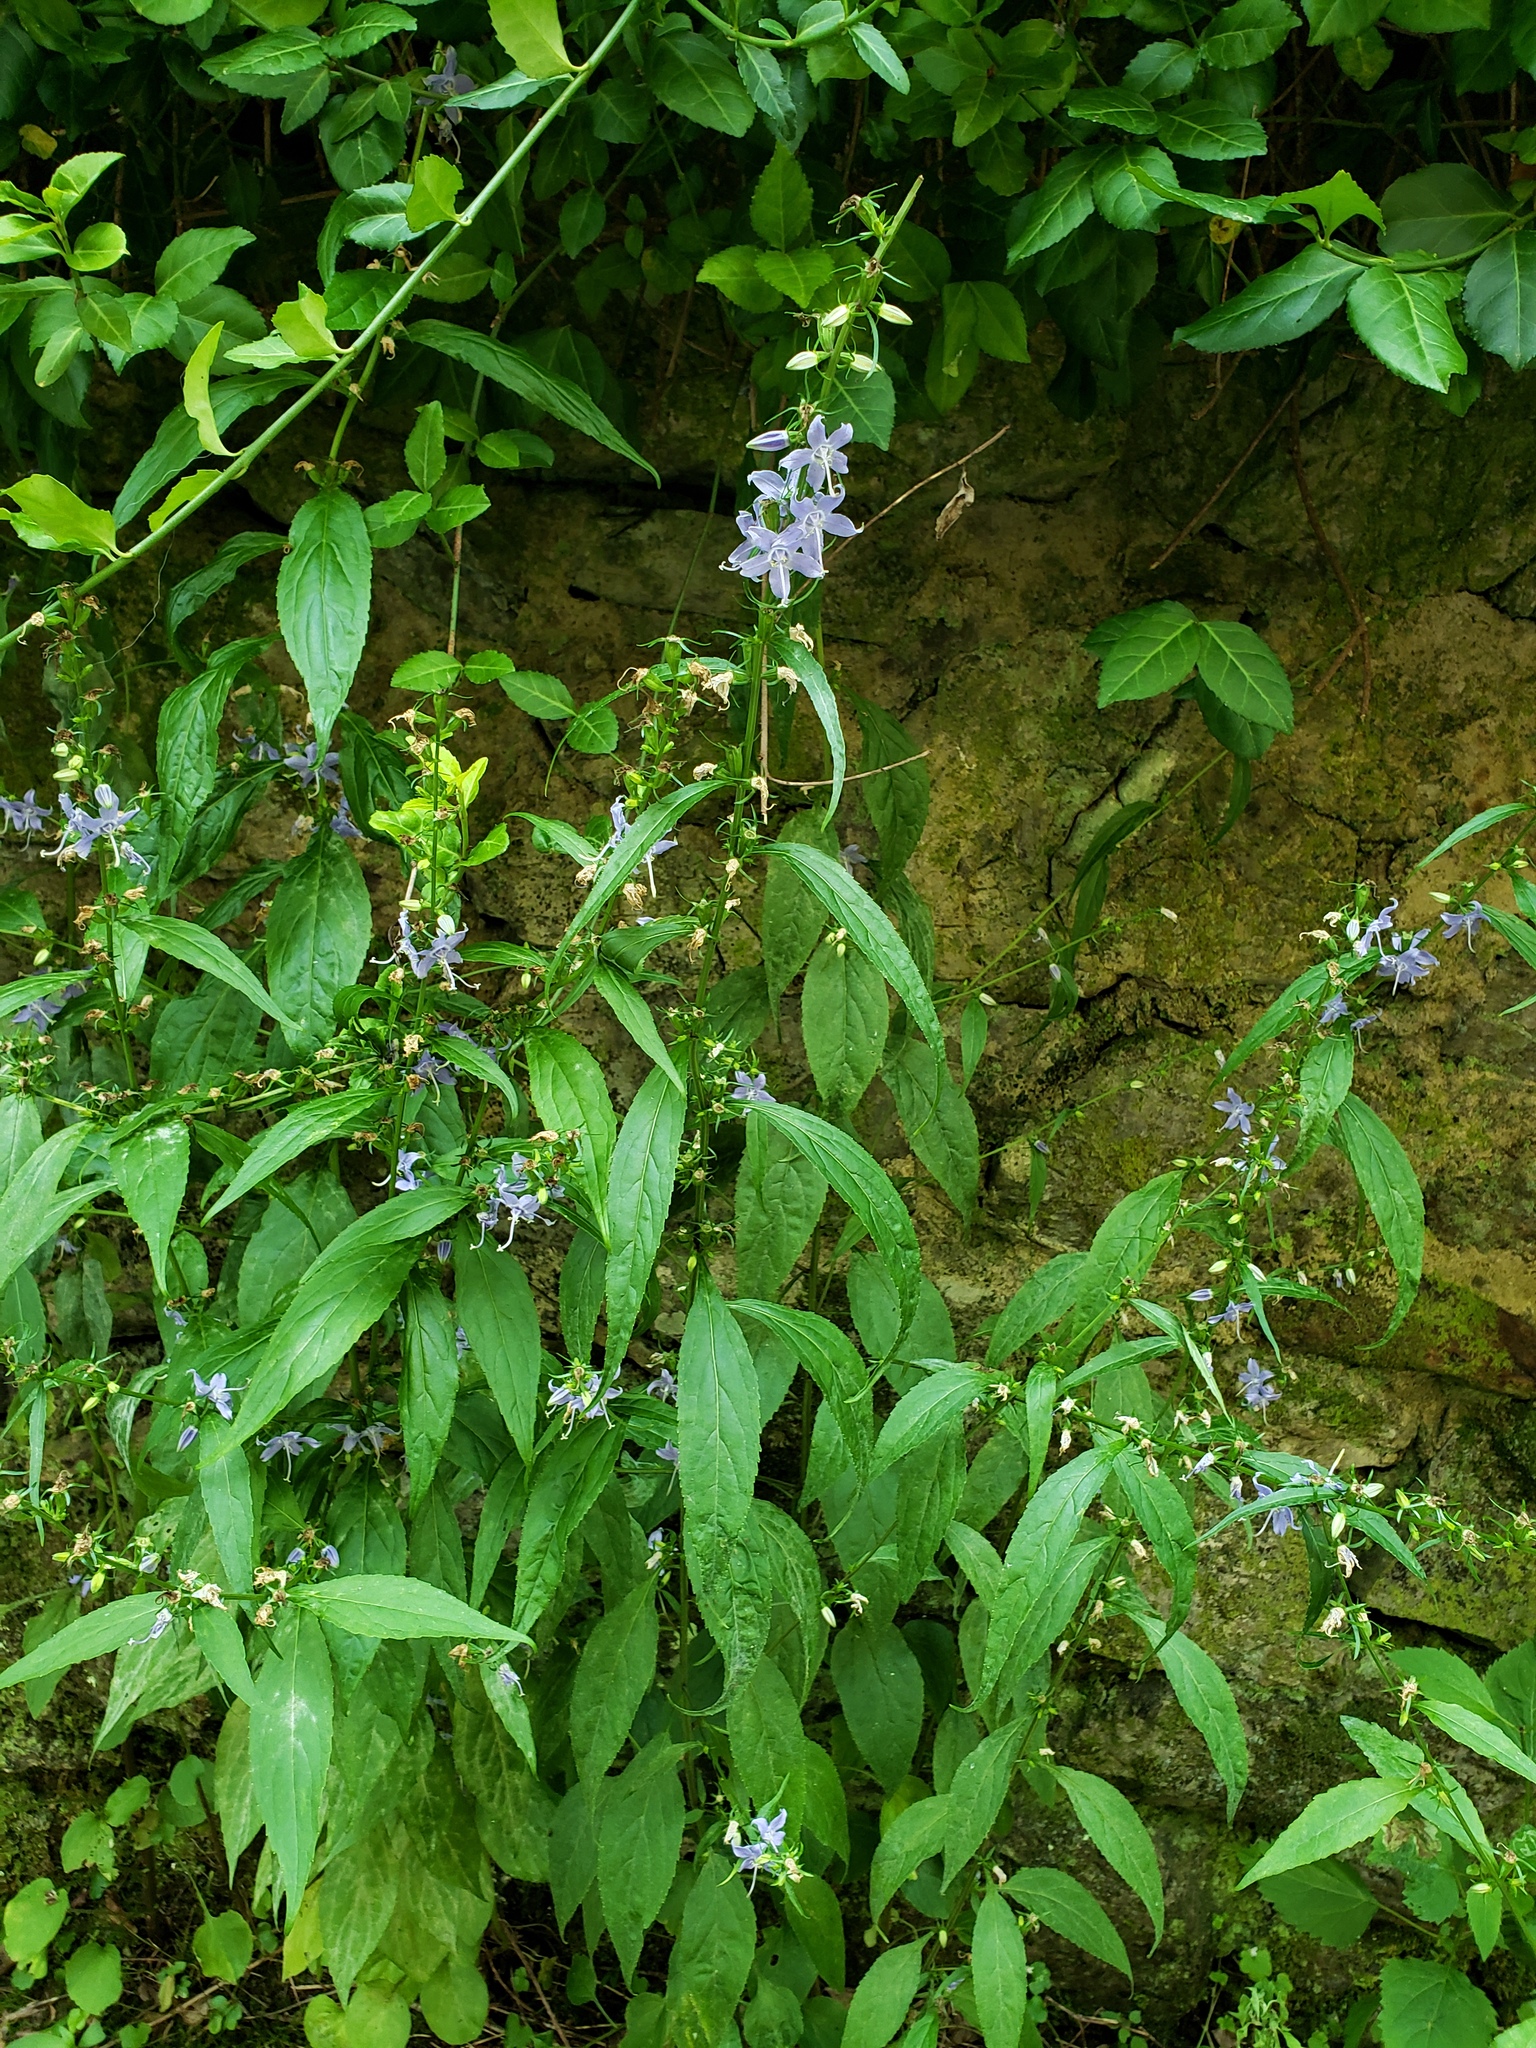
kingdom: Plantae
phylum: Tracheophyta
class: Magnoliopsida
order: Asterales
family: Campanulaceae
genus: Campanulastrum
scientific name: Campanulastrum americanum
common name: American bellflower
